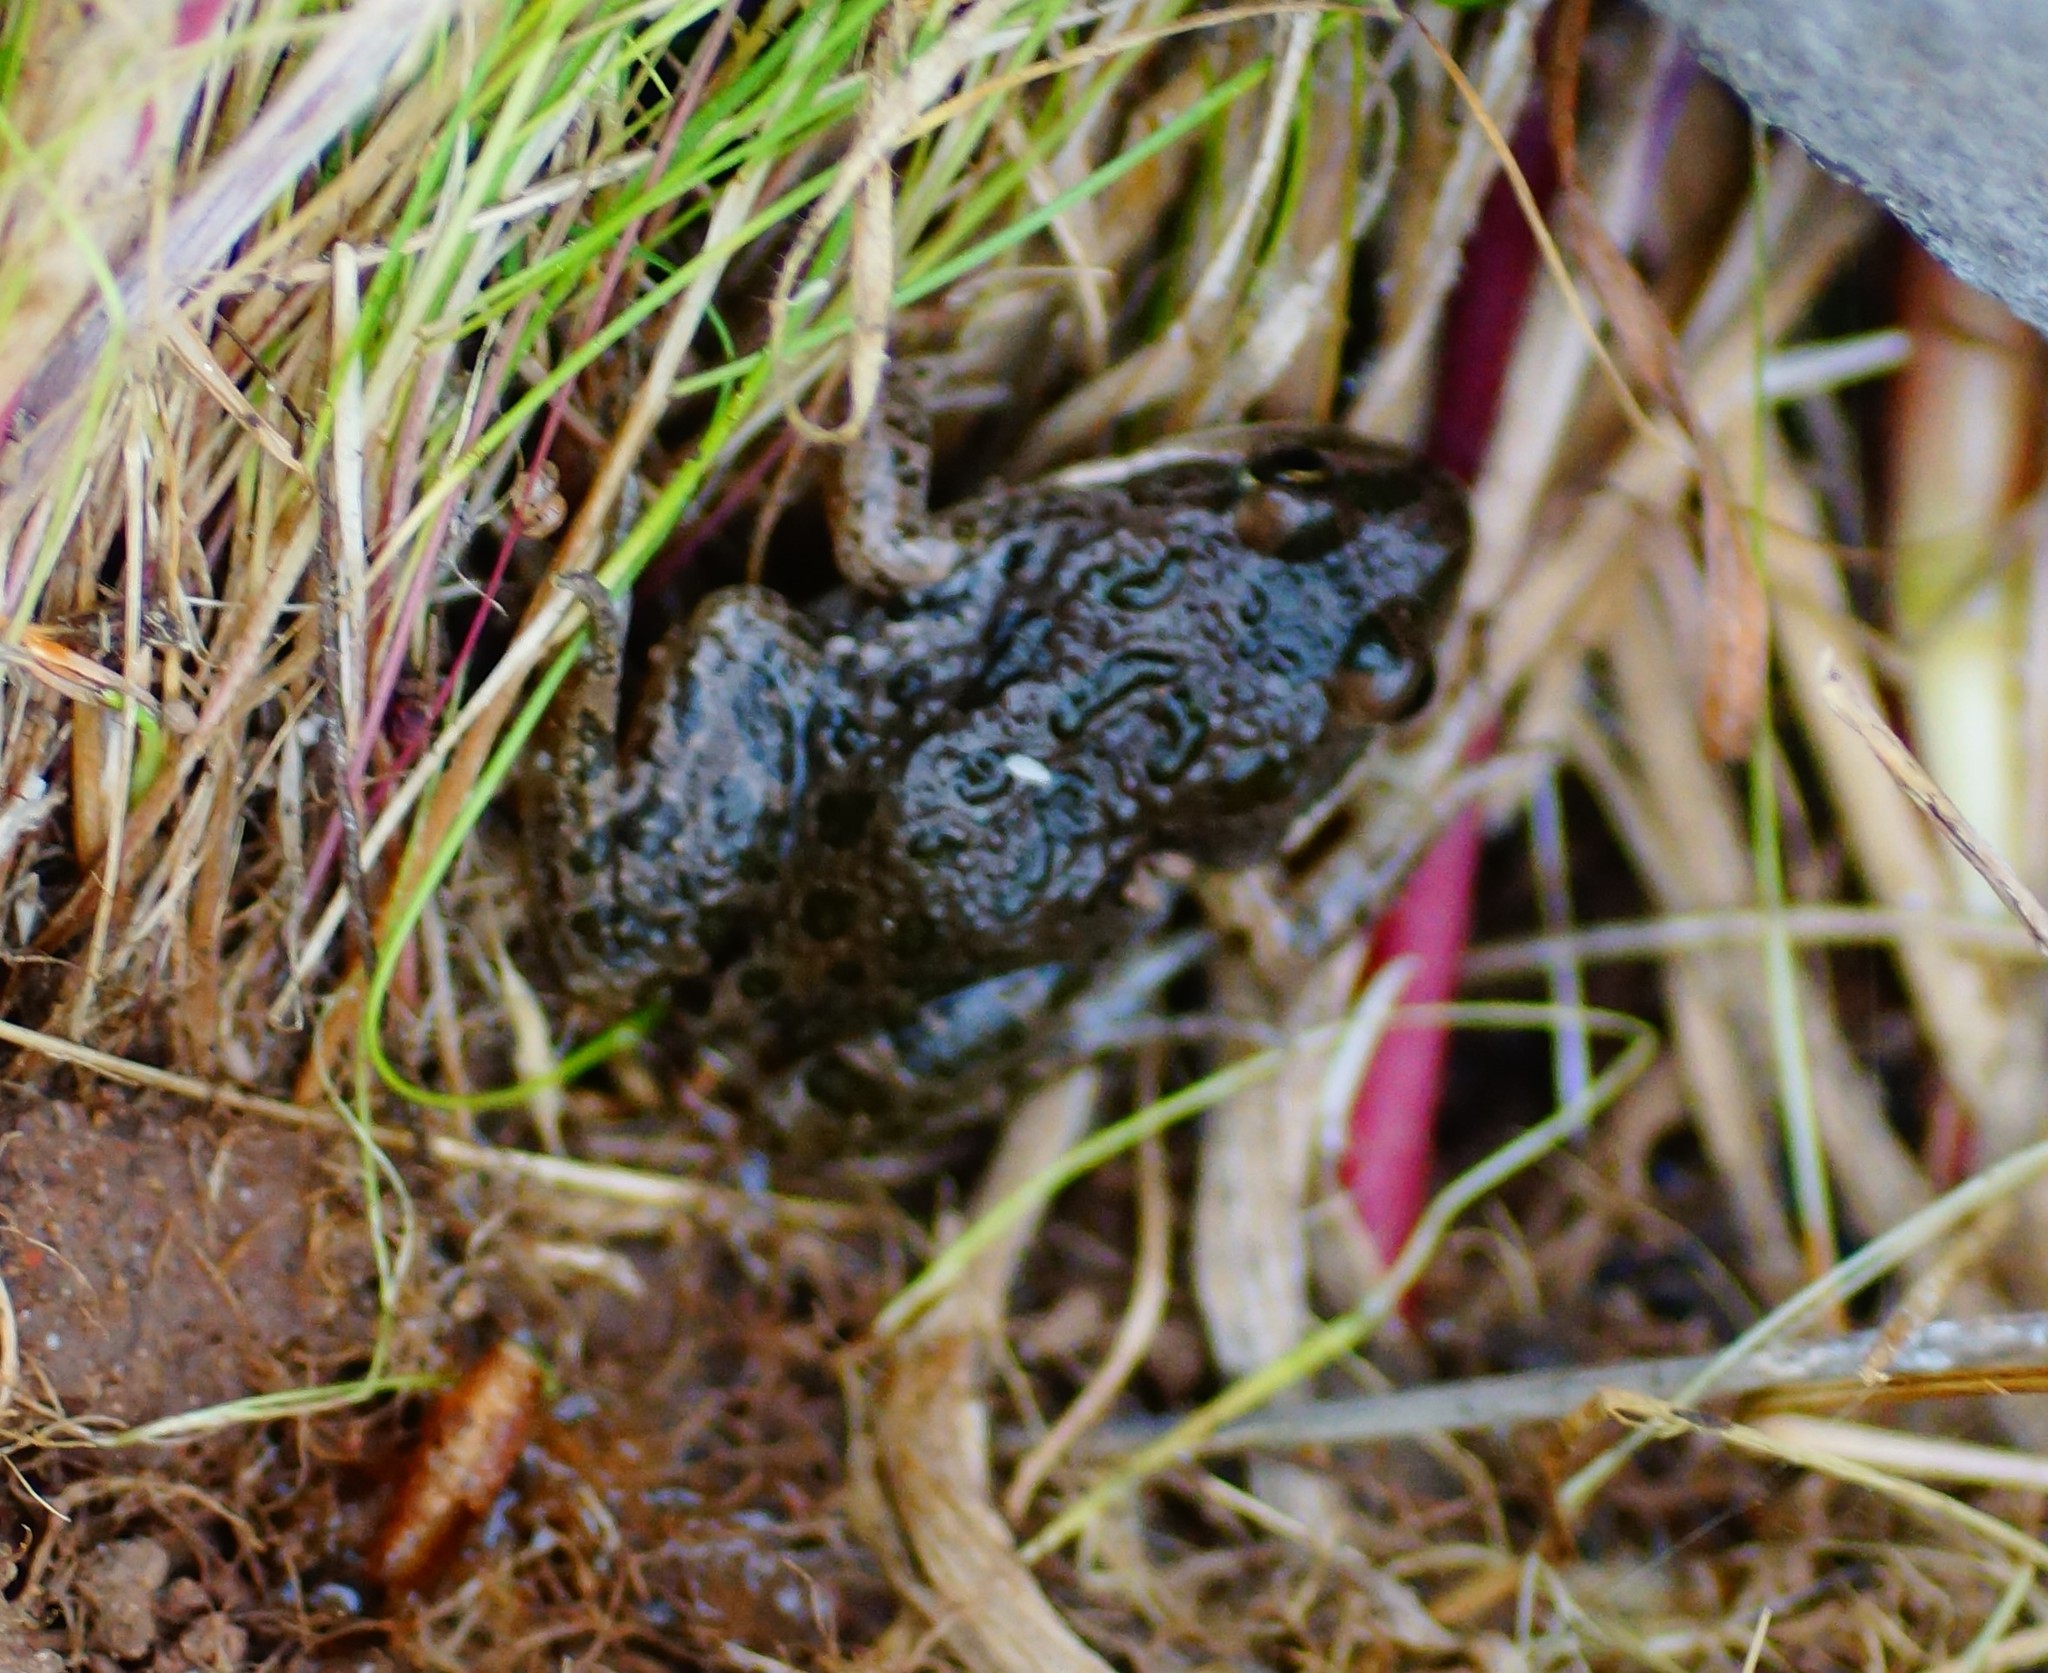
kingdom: Animalia
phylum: Chordata
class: Amphibia
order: Anura
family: Limnodynastidae
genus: Limnodynastes
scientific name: Limnodynastes tasmaniensis
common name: Spotted marsh frog
